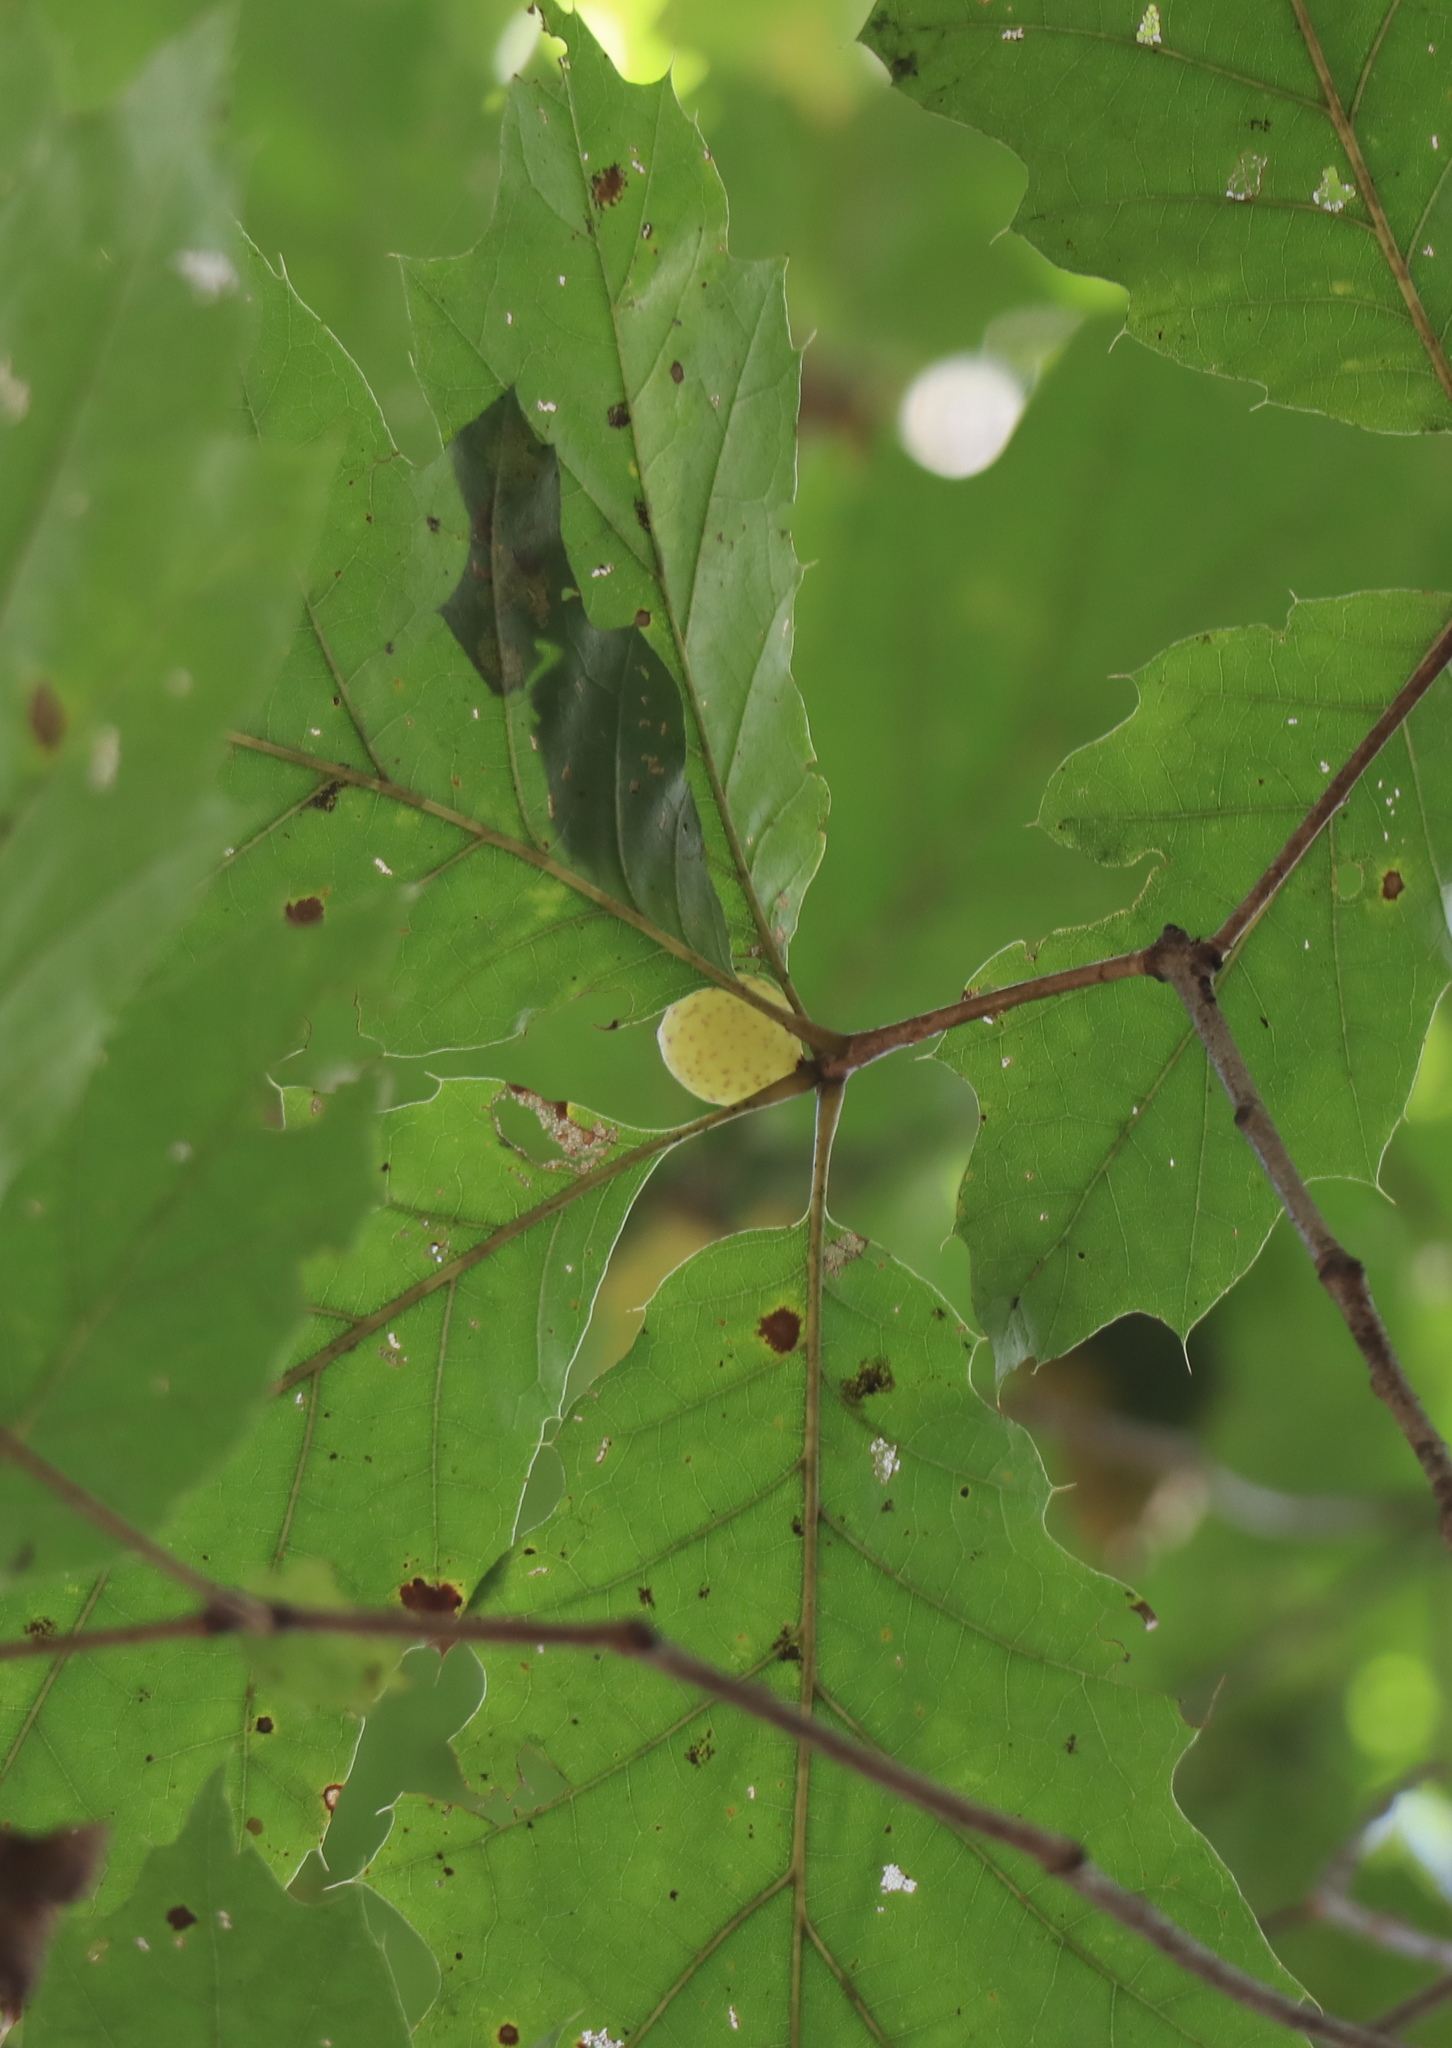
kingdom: Animalia
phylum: Arthropoda
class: Insecta
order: Hymenoptera
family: Cynipidae
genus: Amphibolips
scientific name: Amphibolips
